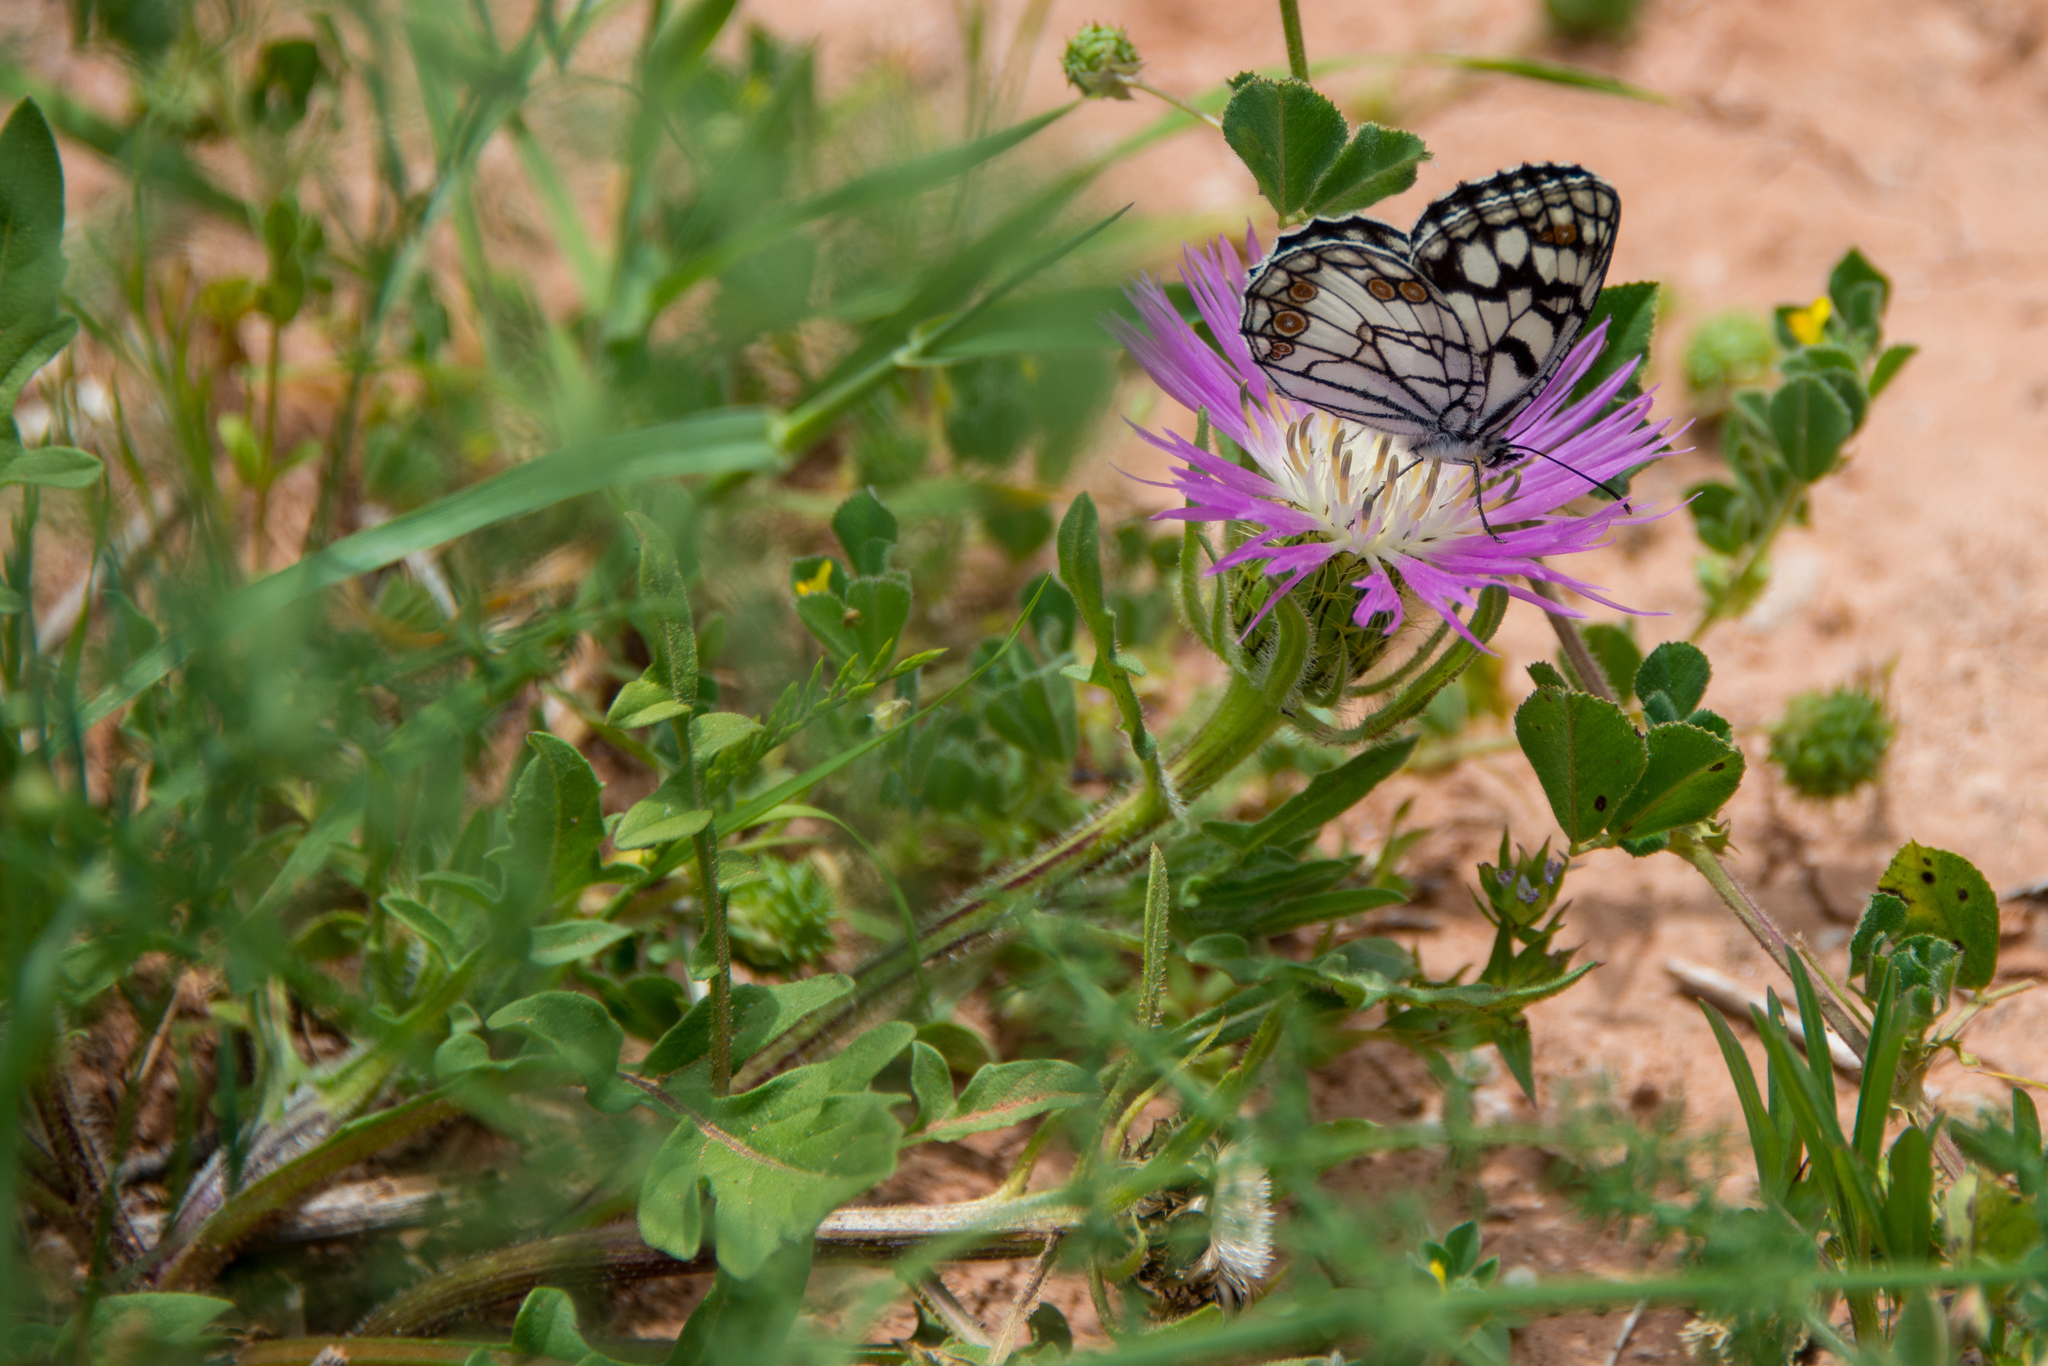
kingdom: Plantae
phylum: Tracheophyta
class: Magnoliopsida
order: Asterales
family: Asteraceae
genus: Centaurea
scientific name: Centaurea pullata
